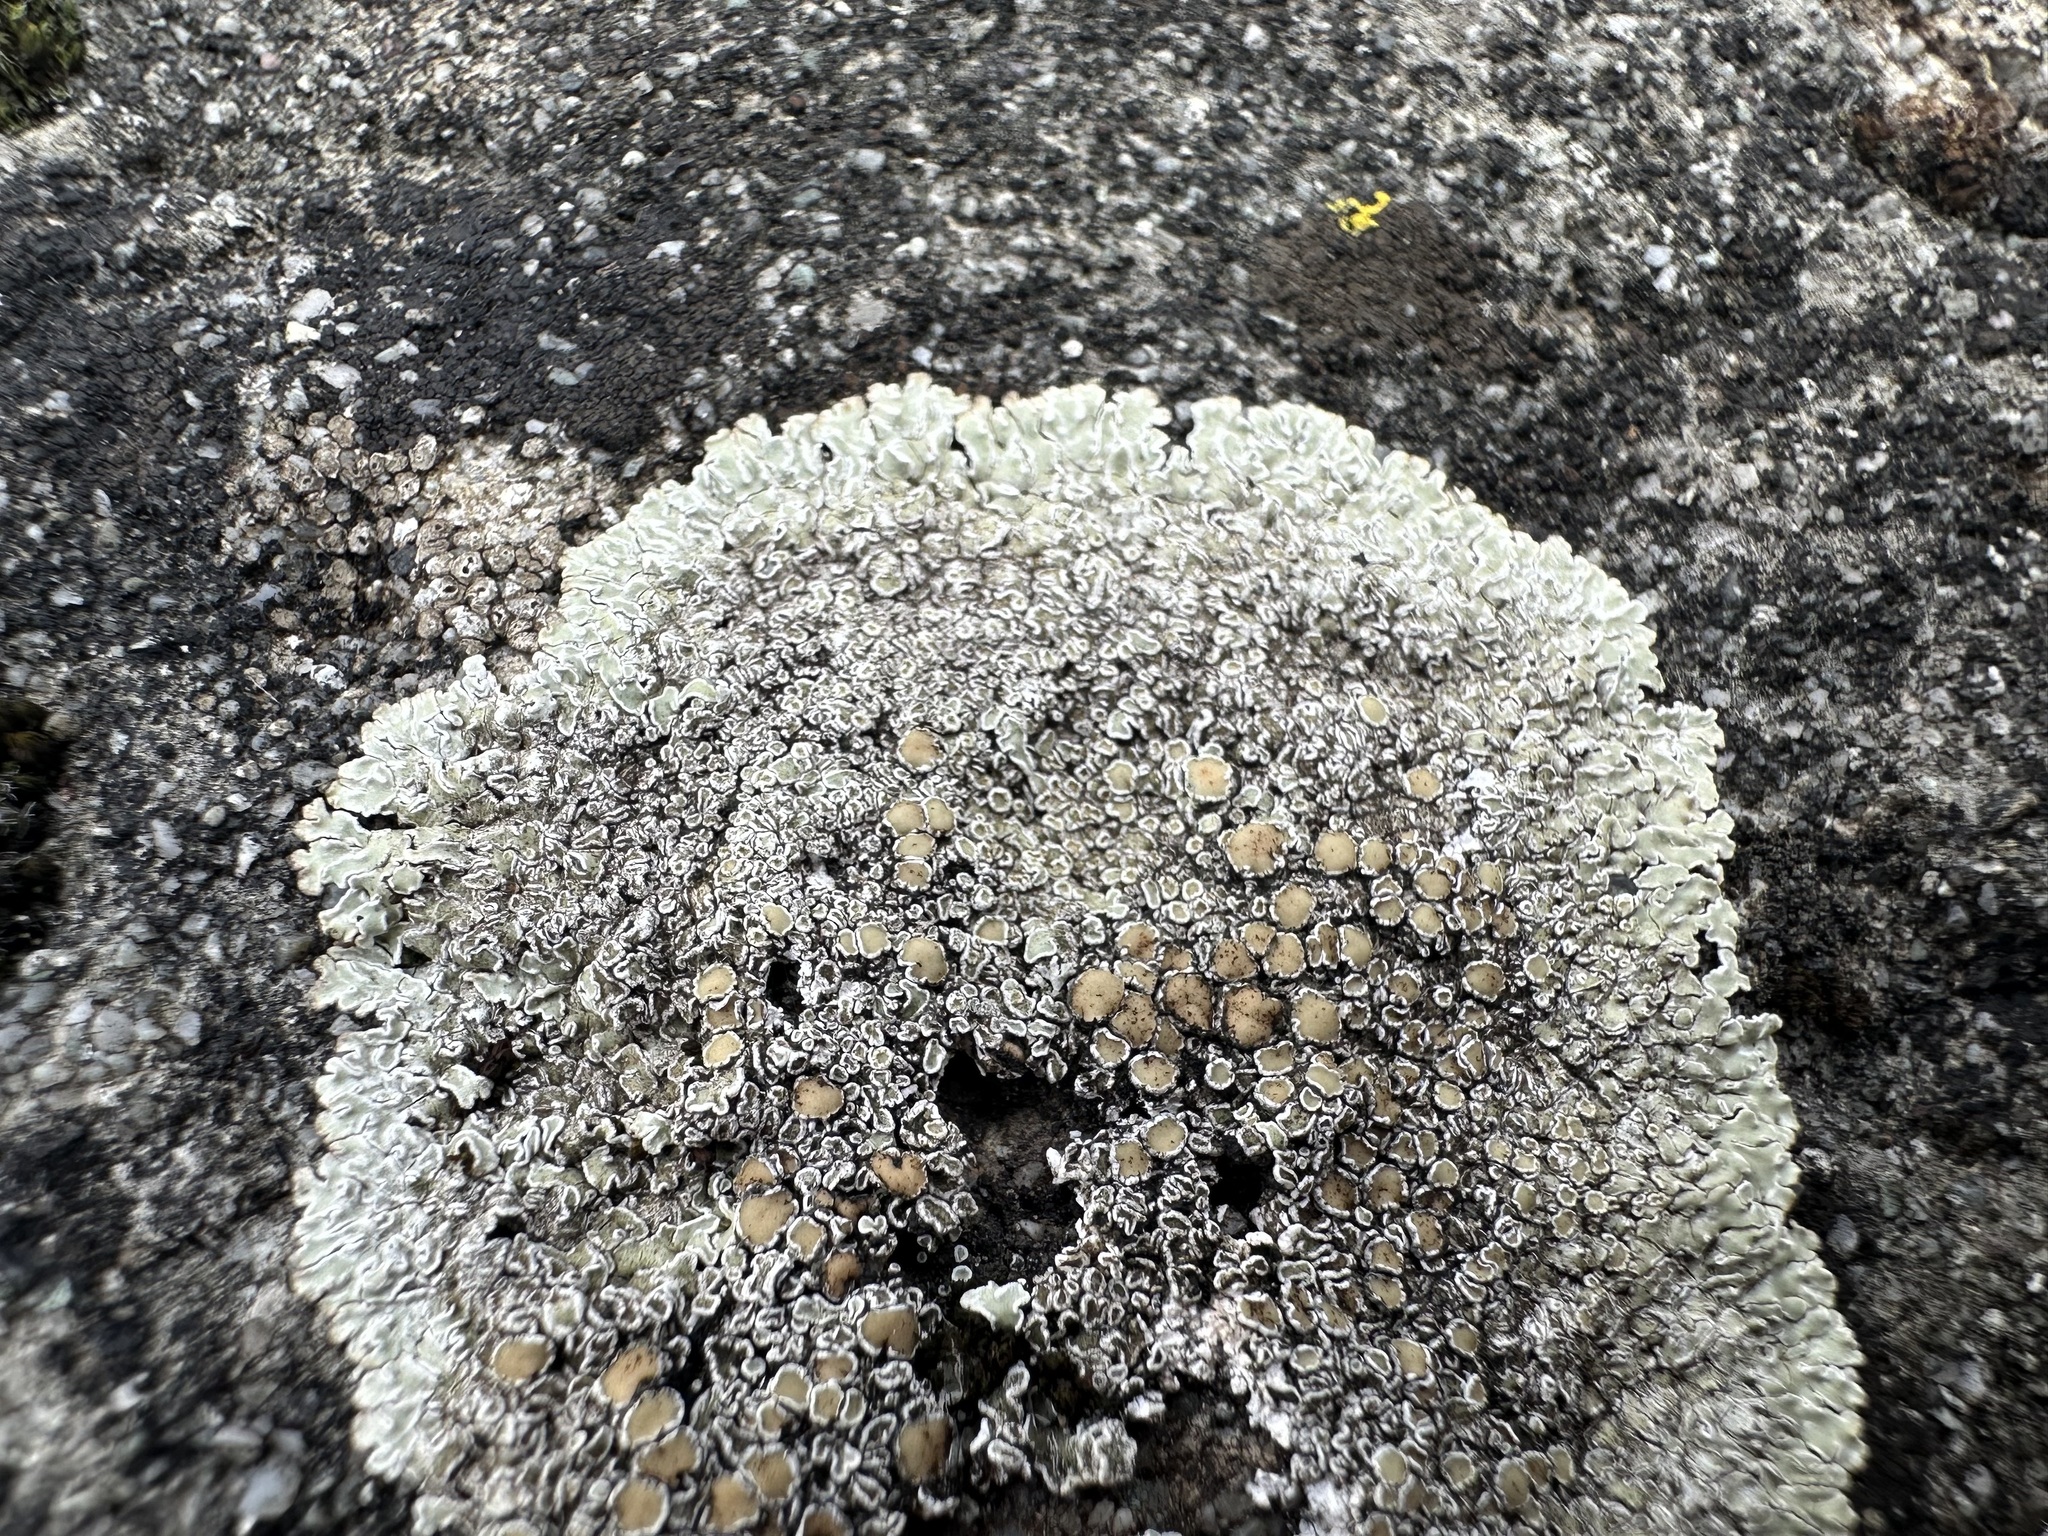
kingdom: Fungi
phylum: Ascomycota
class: Lecanoromycetes
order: Lecanorales
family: Lecanoraceae
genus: Protoparmeliopsis
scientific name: Protoparmeliopsis muralis
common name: Stonewall rim lichen
